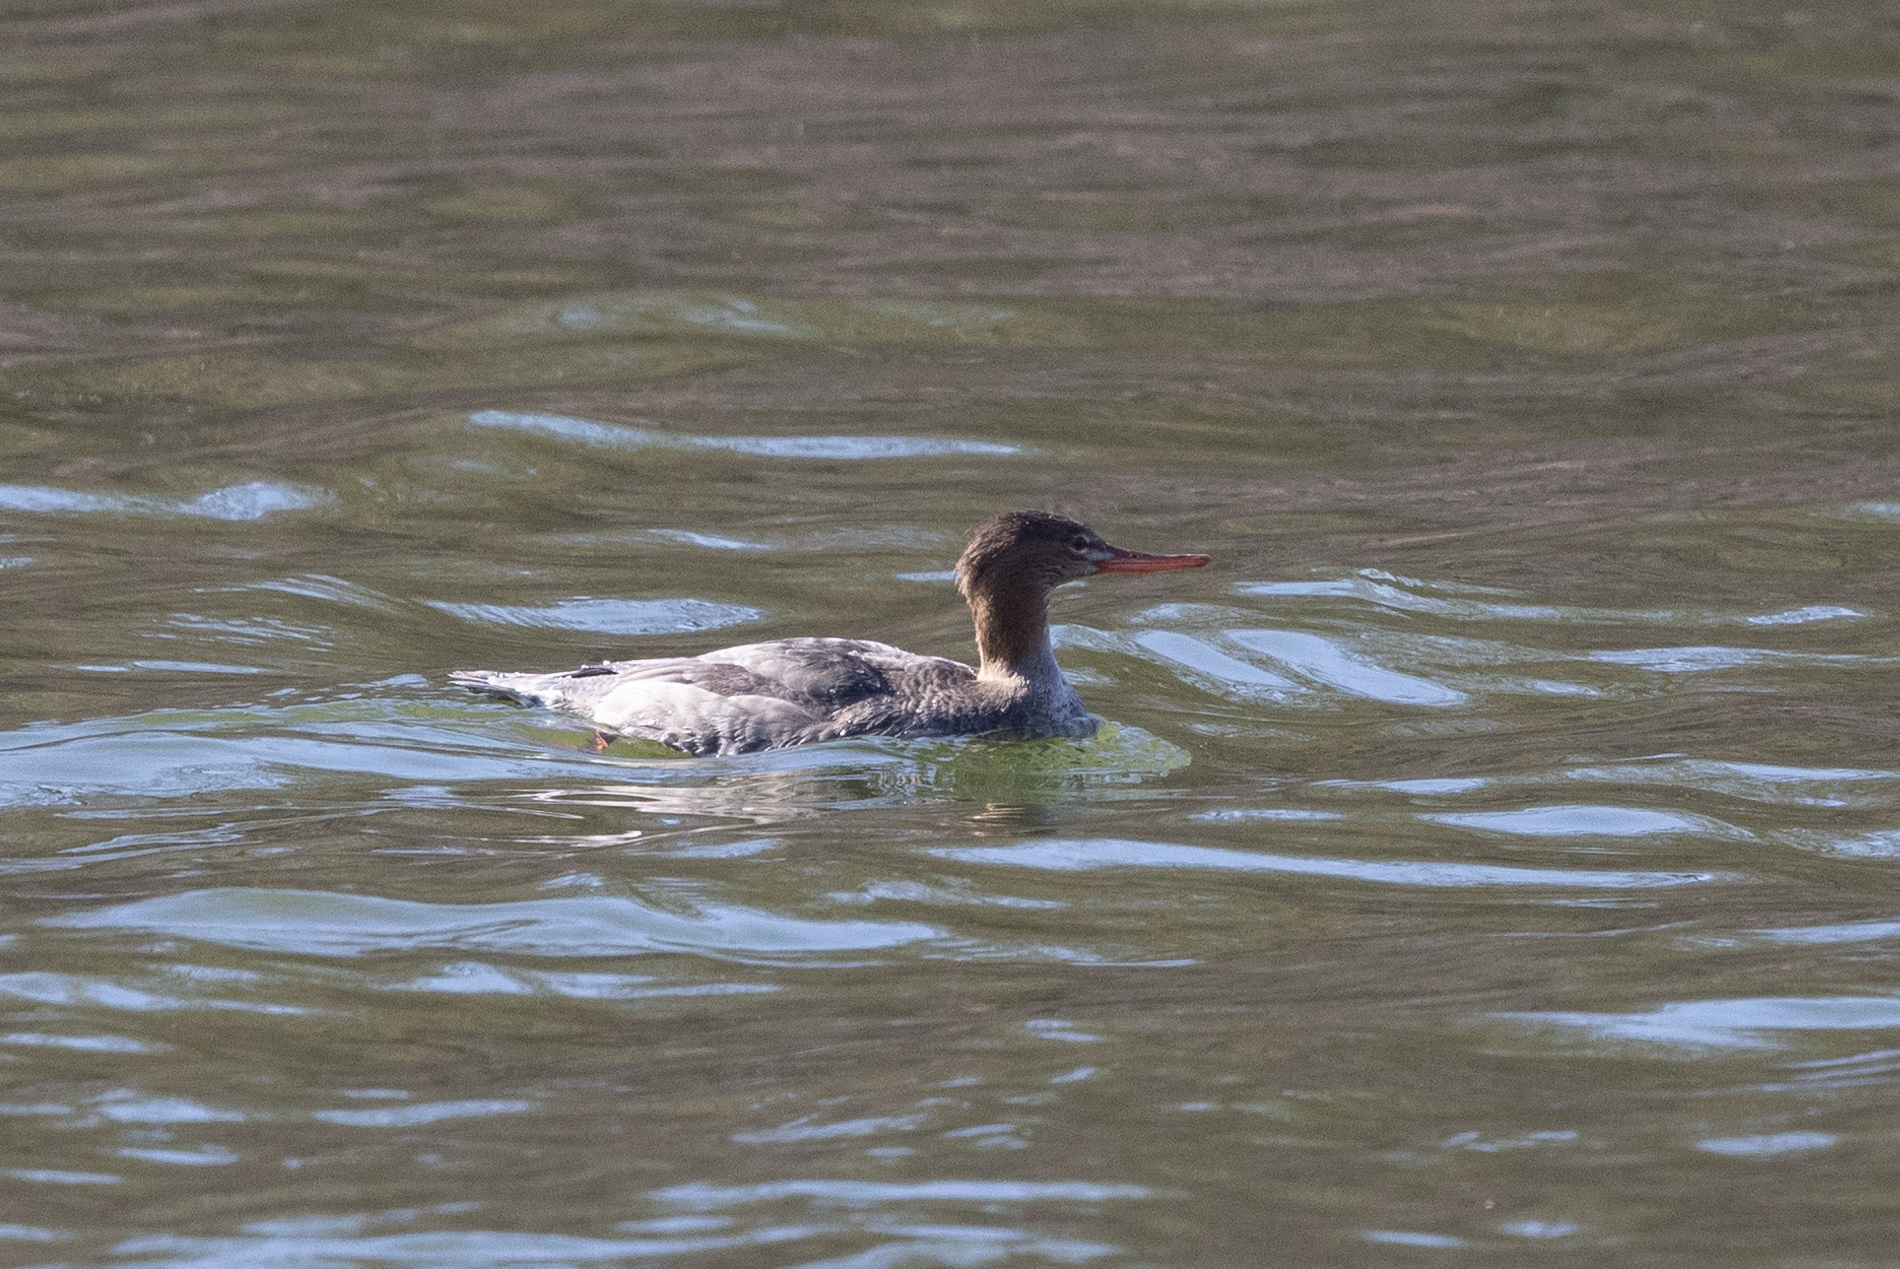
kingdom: Animalia
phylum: Chordata
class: Aves
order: Anseriformes
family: Anatidae
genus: Mergus
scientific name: Mergus serrator
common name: Red-breasted merganser
